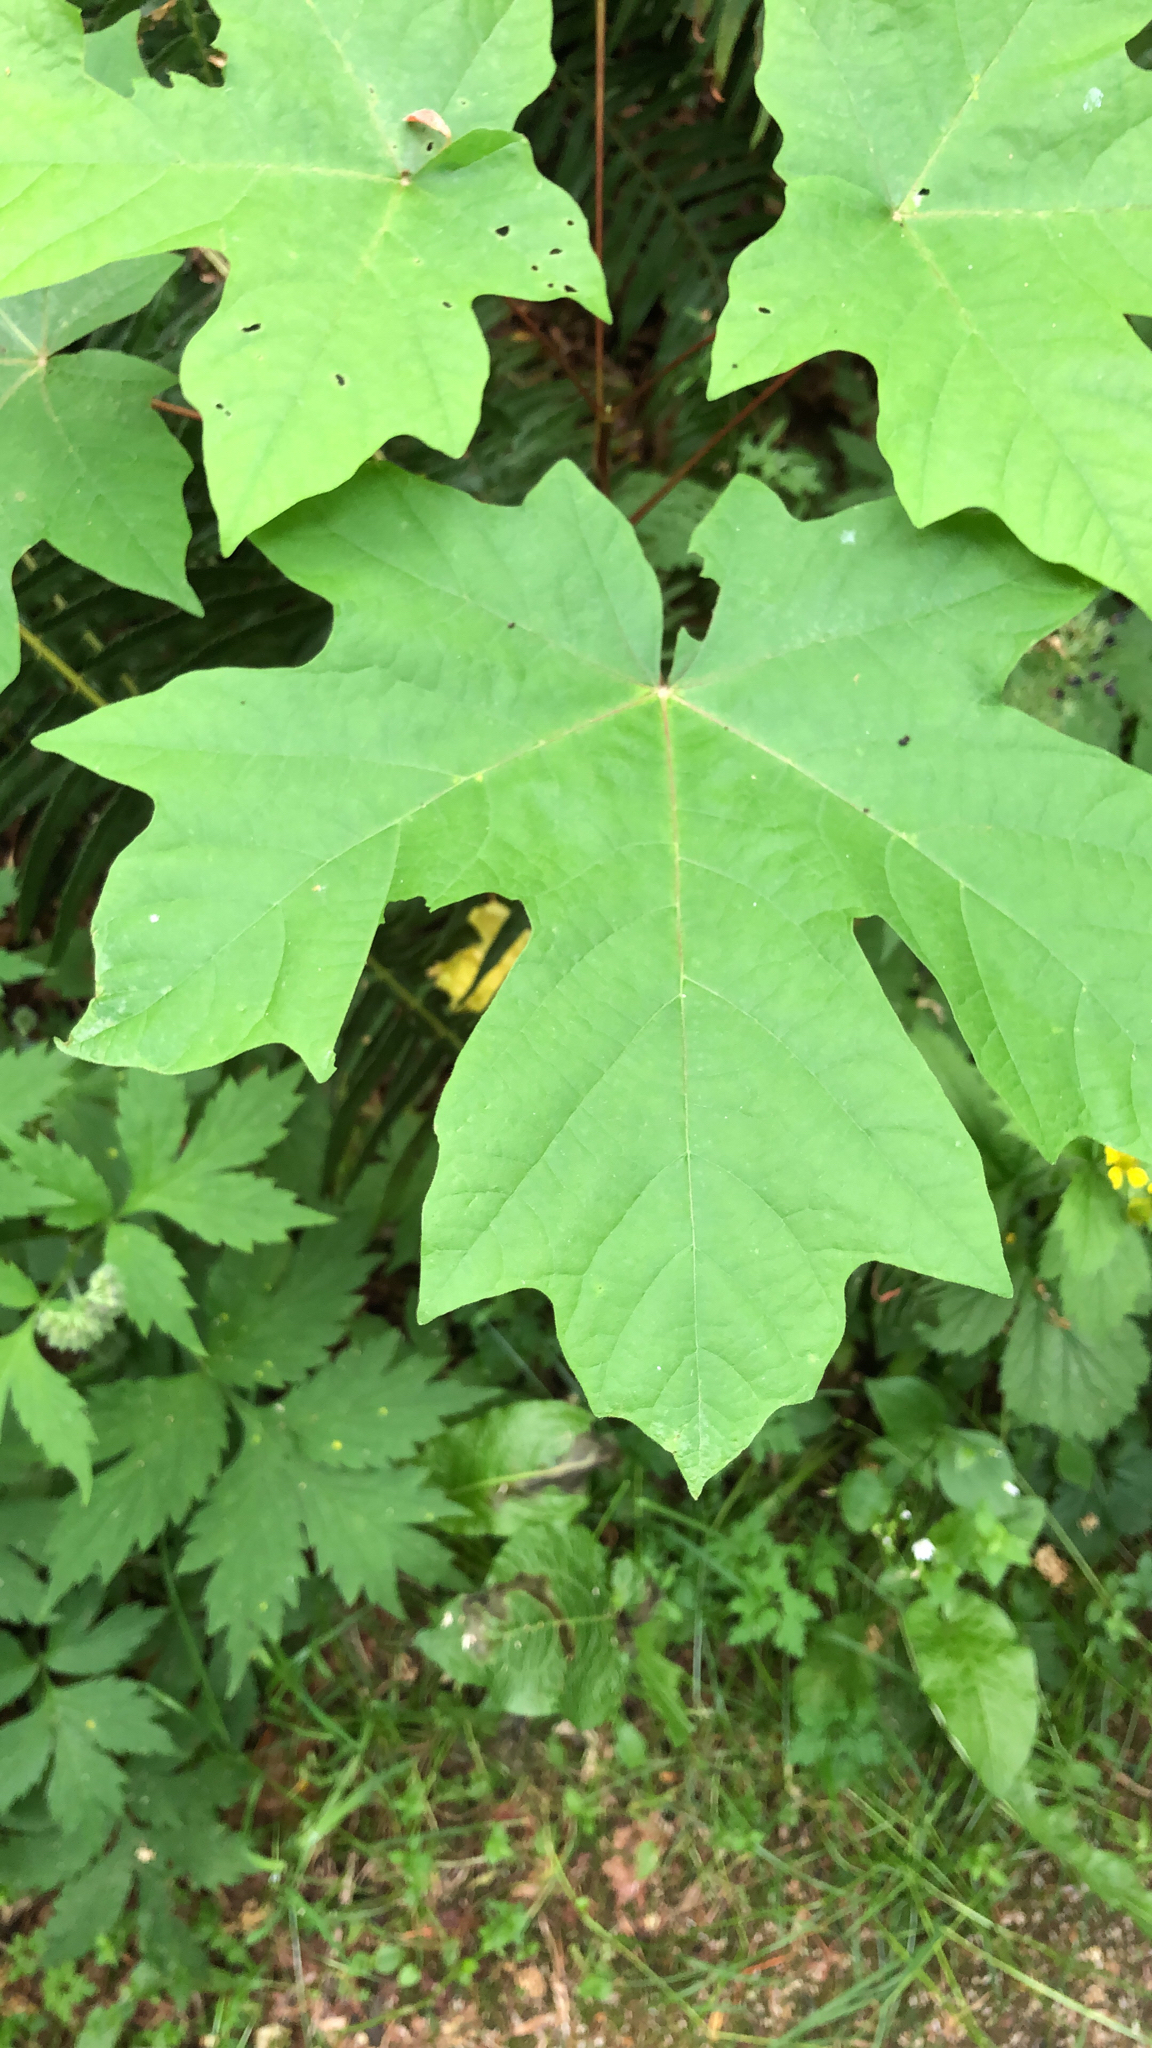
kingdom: Plantae
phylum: Tracheophyta
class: Magnoliopsida
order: Sapindales
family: Sapindaceae
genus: Acer
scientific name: Acer macrophyllum
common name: Oregon maple
